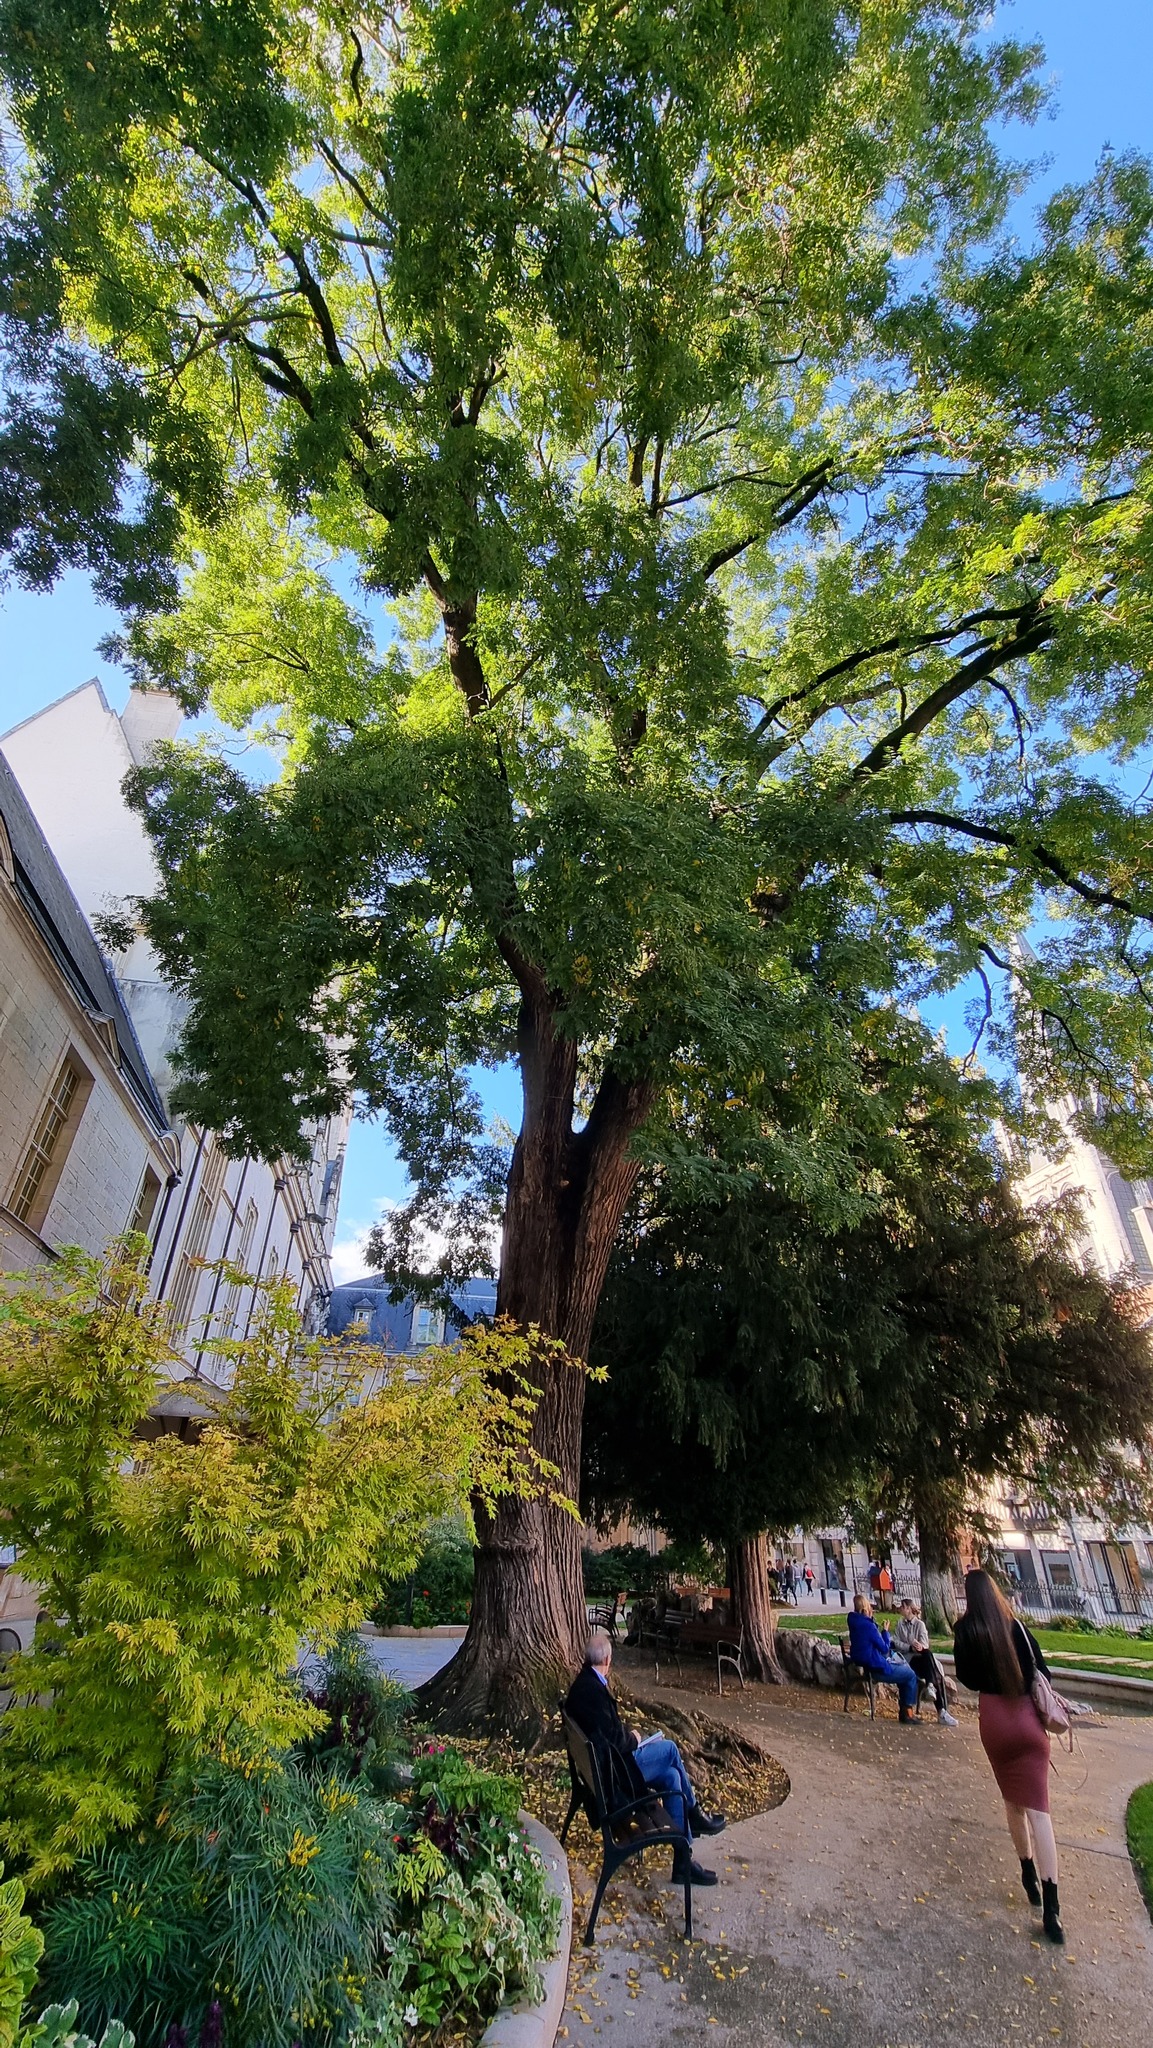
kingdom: Plantae
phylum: Tracheophyta
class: Magnoliopsida
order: Fabales
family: Fabaceae
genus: Styphnolobium
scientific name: Styphnolobium japonicum
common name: Chinese scholartree
